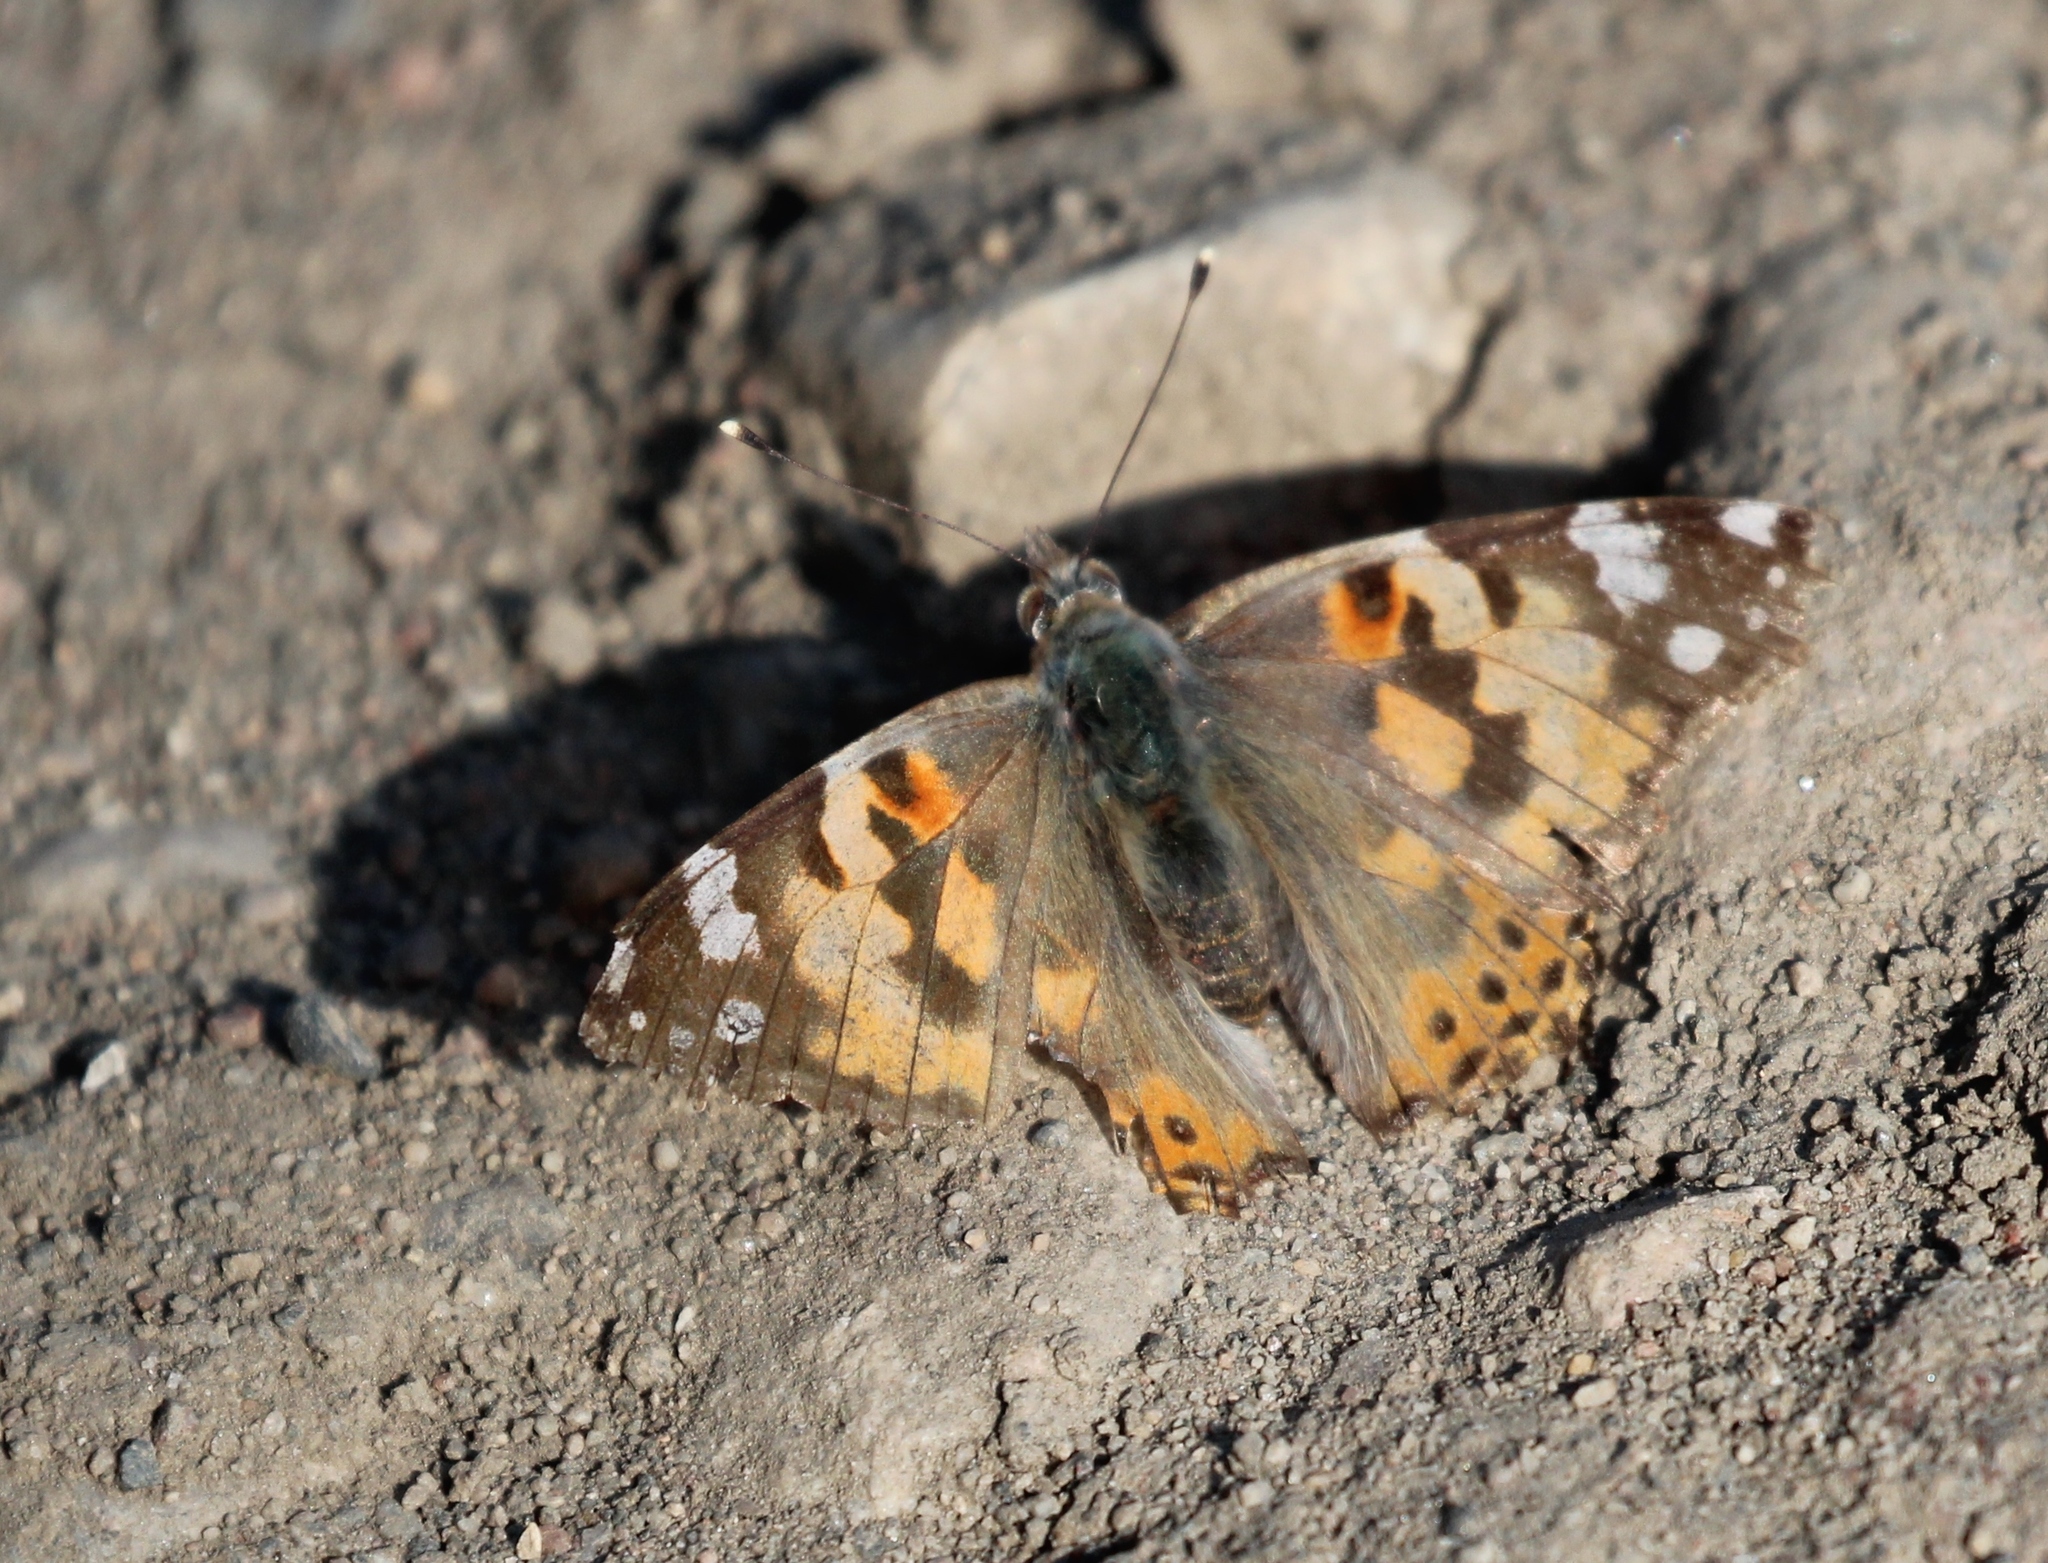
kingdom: Animalia
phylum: Arthropoda
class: Insecta
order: Lepidoptera
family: Nymphalidae
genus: Vanessa
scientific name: Vanessa cardui
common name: Painted lady
